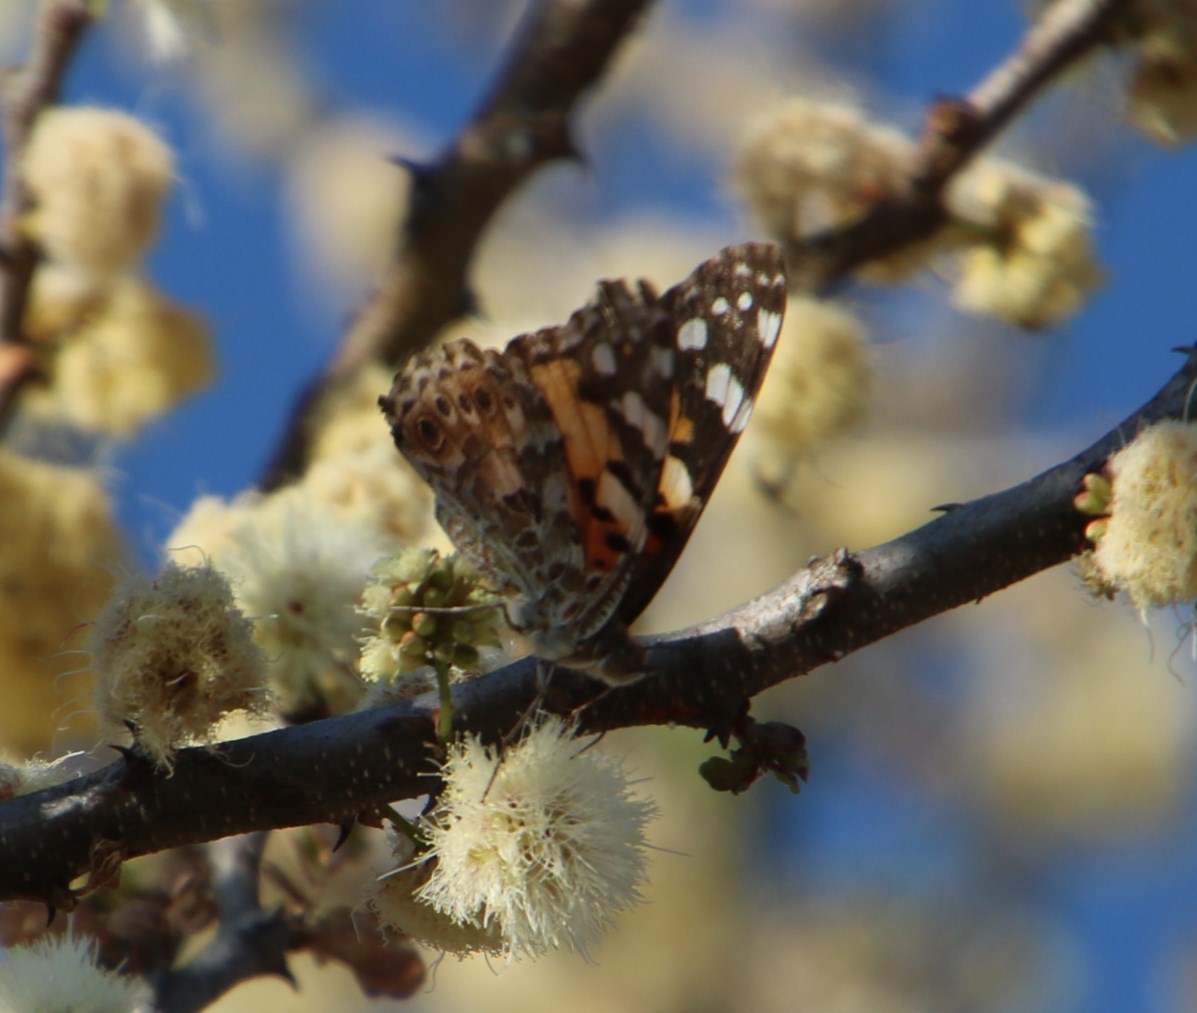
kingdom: Plantae
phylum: Tracheophyta
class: Magnoliopsida
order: Fabales
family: Fabaceae
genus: Senegalia
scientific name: Senegalia mellifera
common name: Hookthorn
